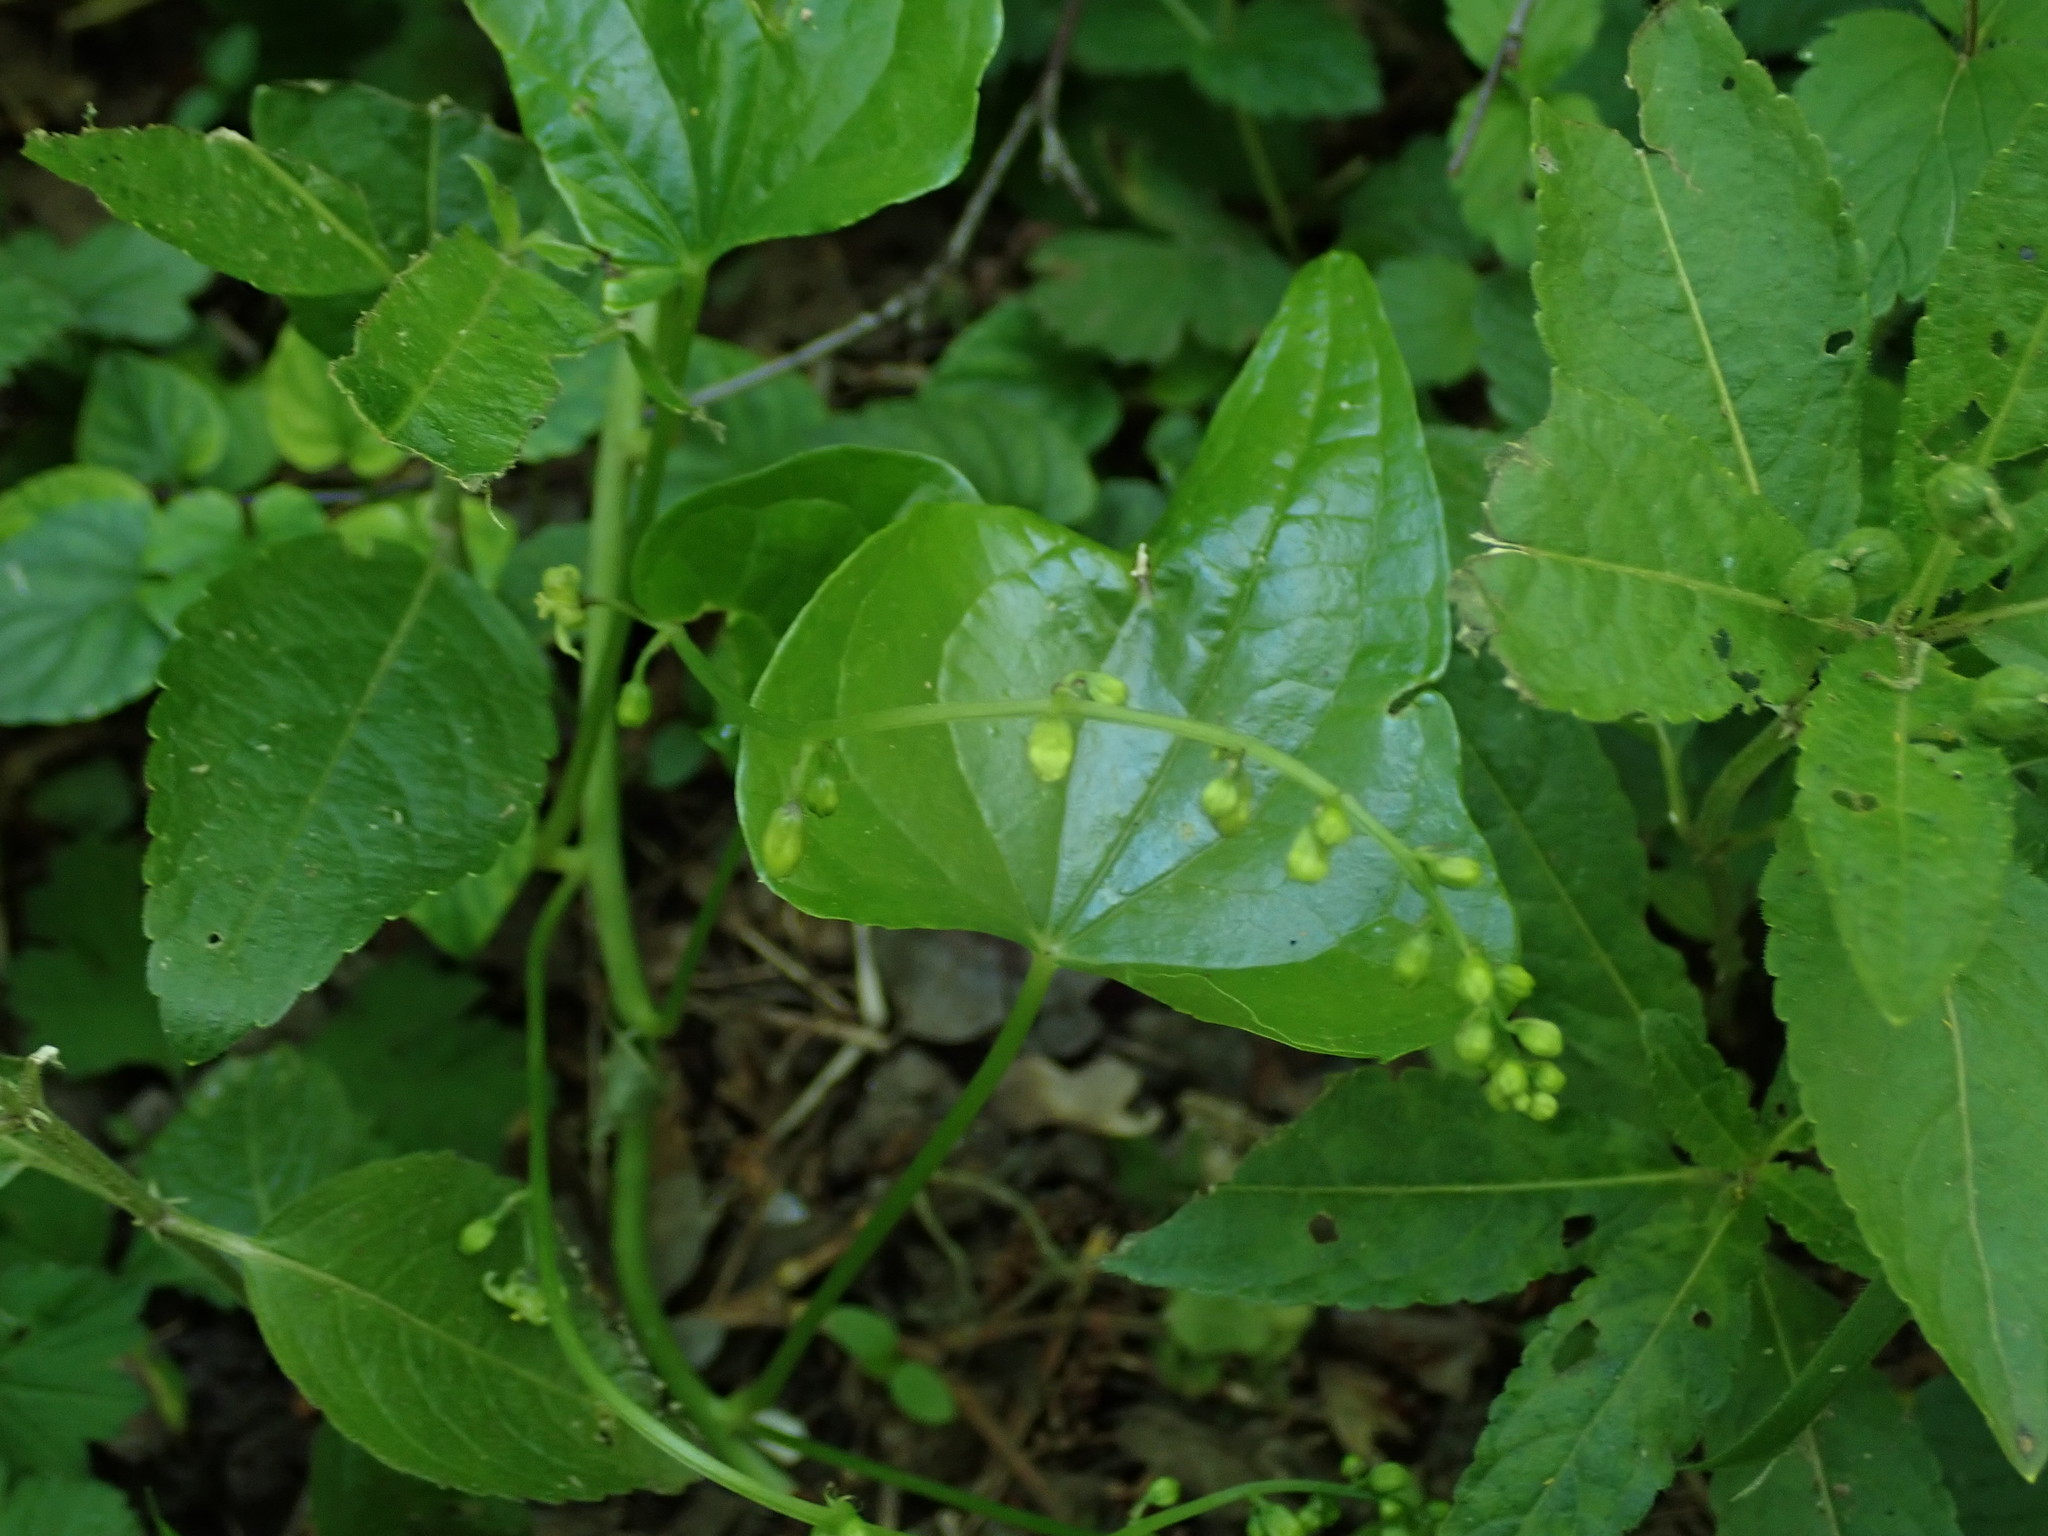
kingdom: Plantae
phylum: Tracheophyta
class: Liliopsida
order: Dioscoreales
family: Dioscoreaceae
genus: Dioscorea
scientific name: Dioscorea communis
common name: Black-bindweed
